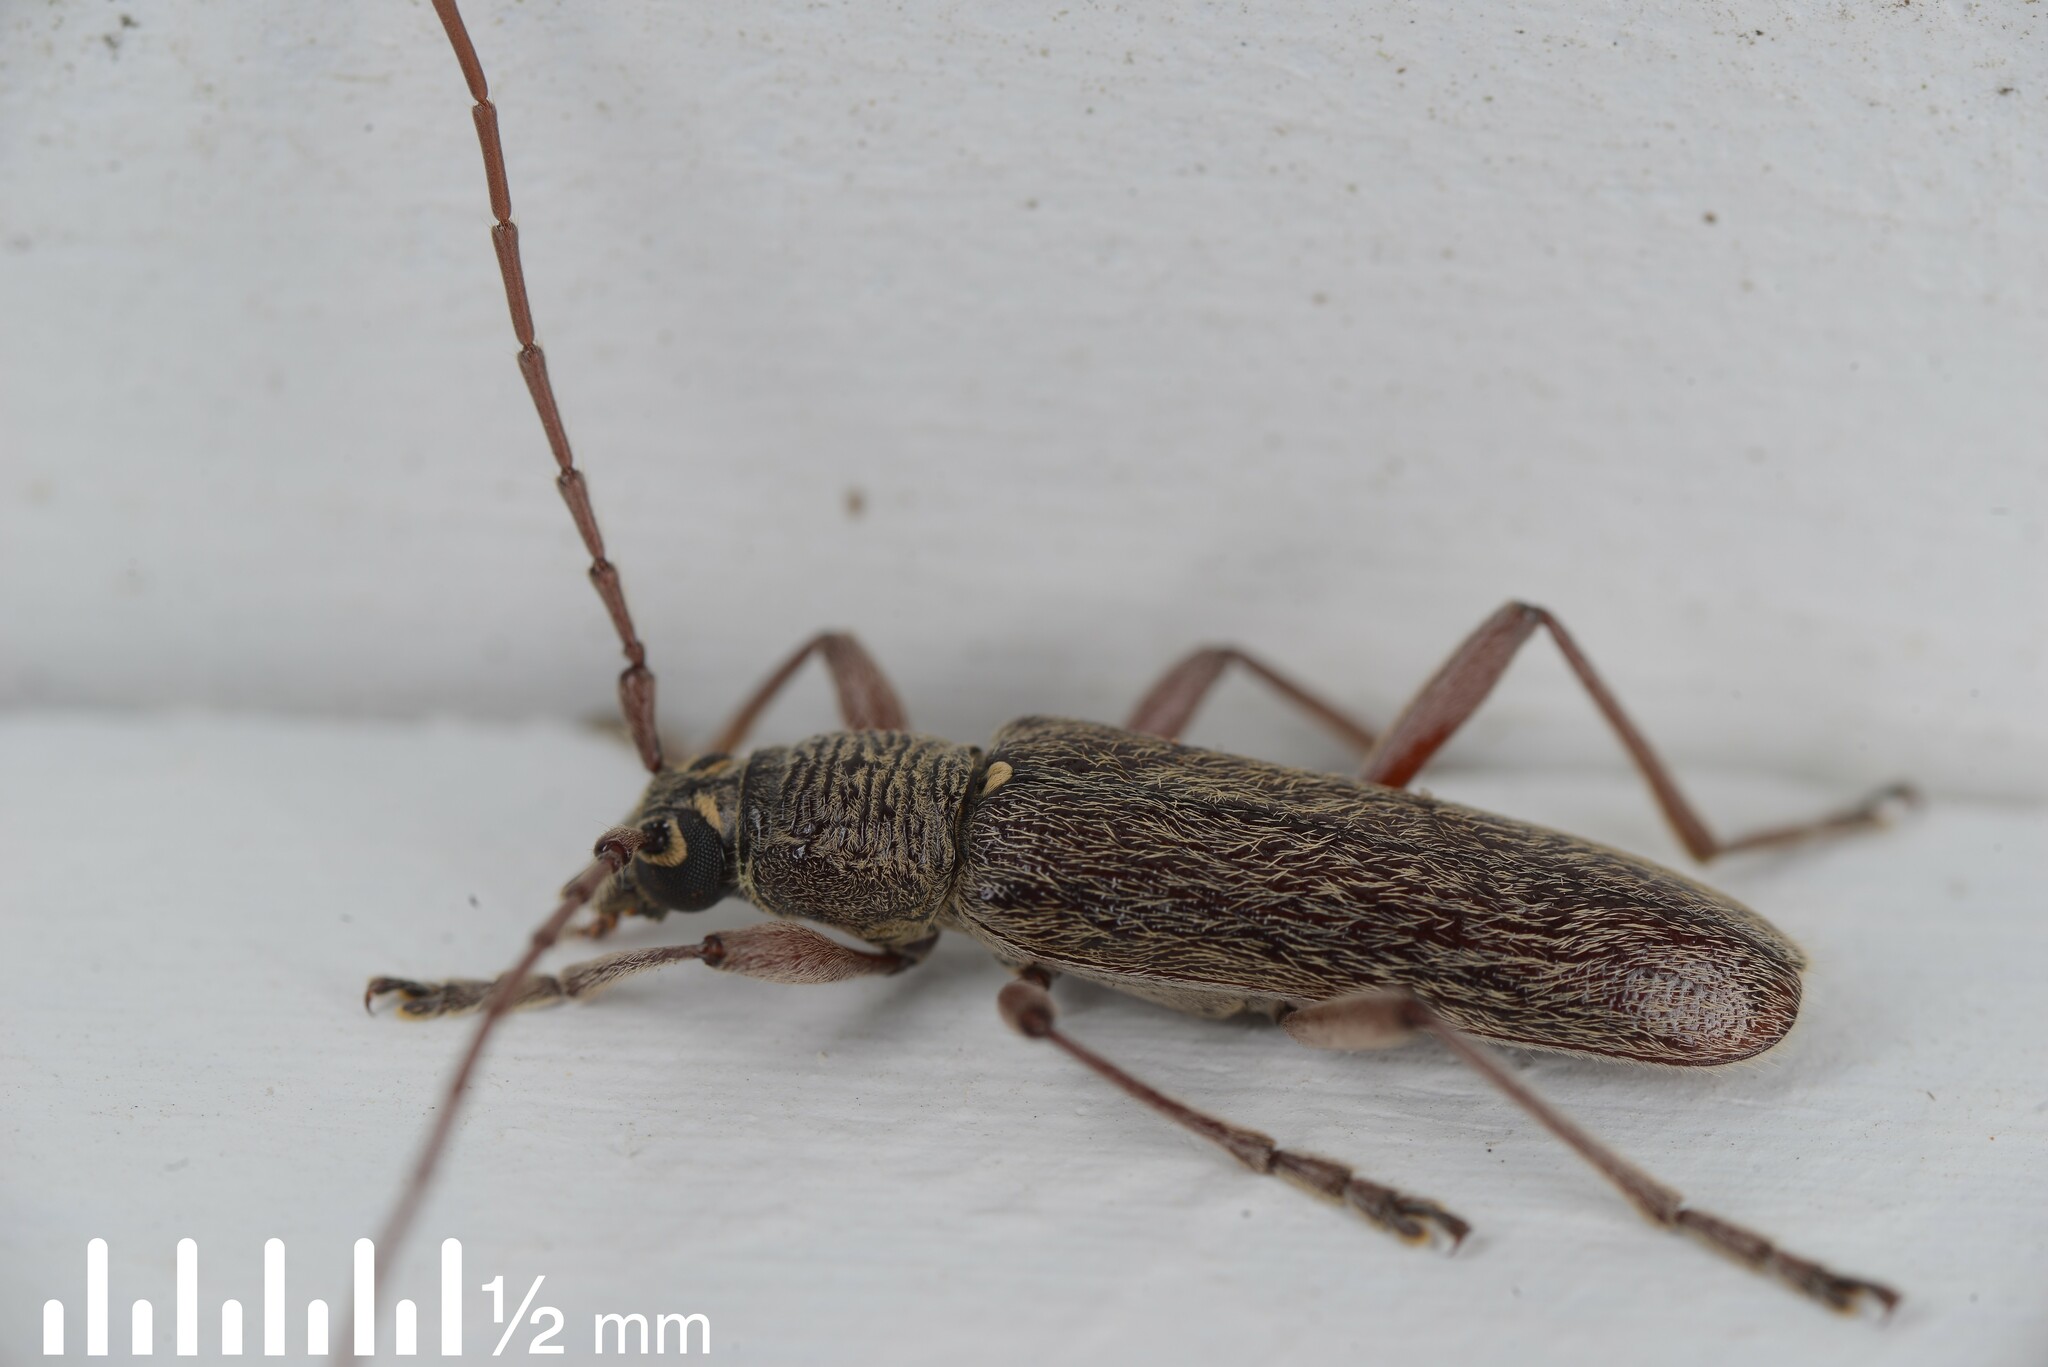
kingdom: Animalia
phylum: Arthropoda
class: Insecta
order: Coleoptera
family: Cerambycidae
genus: Oemona
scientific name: Oemona hirta
